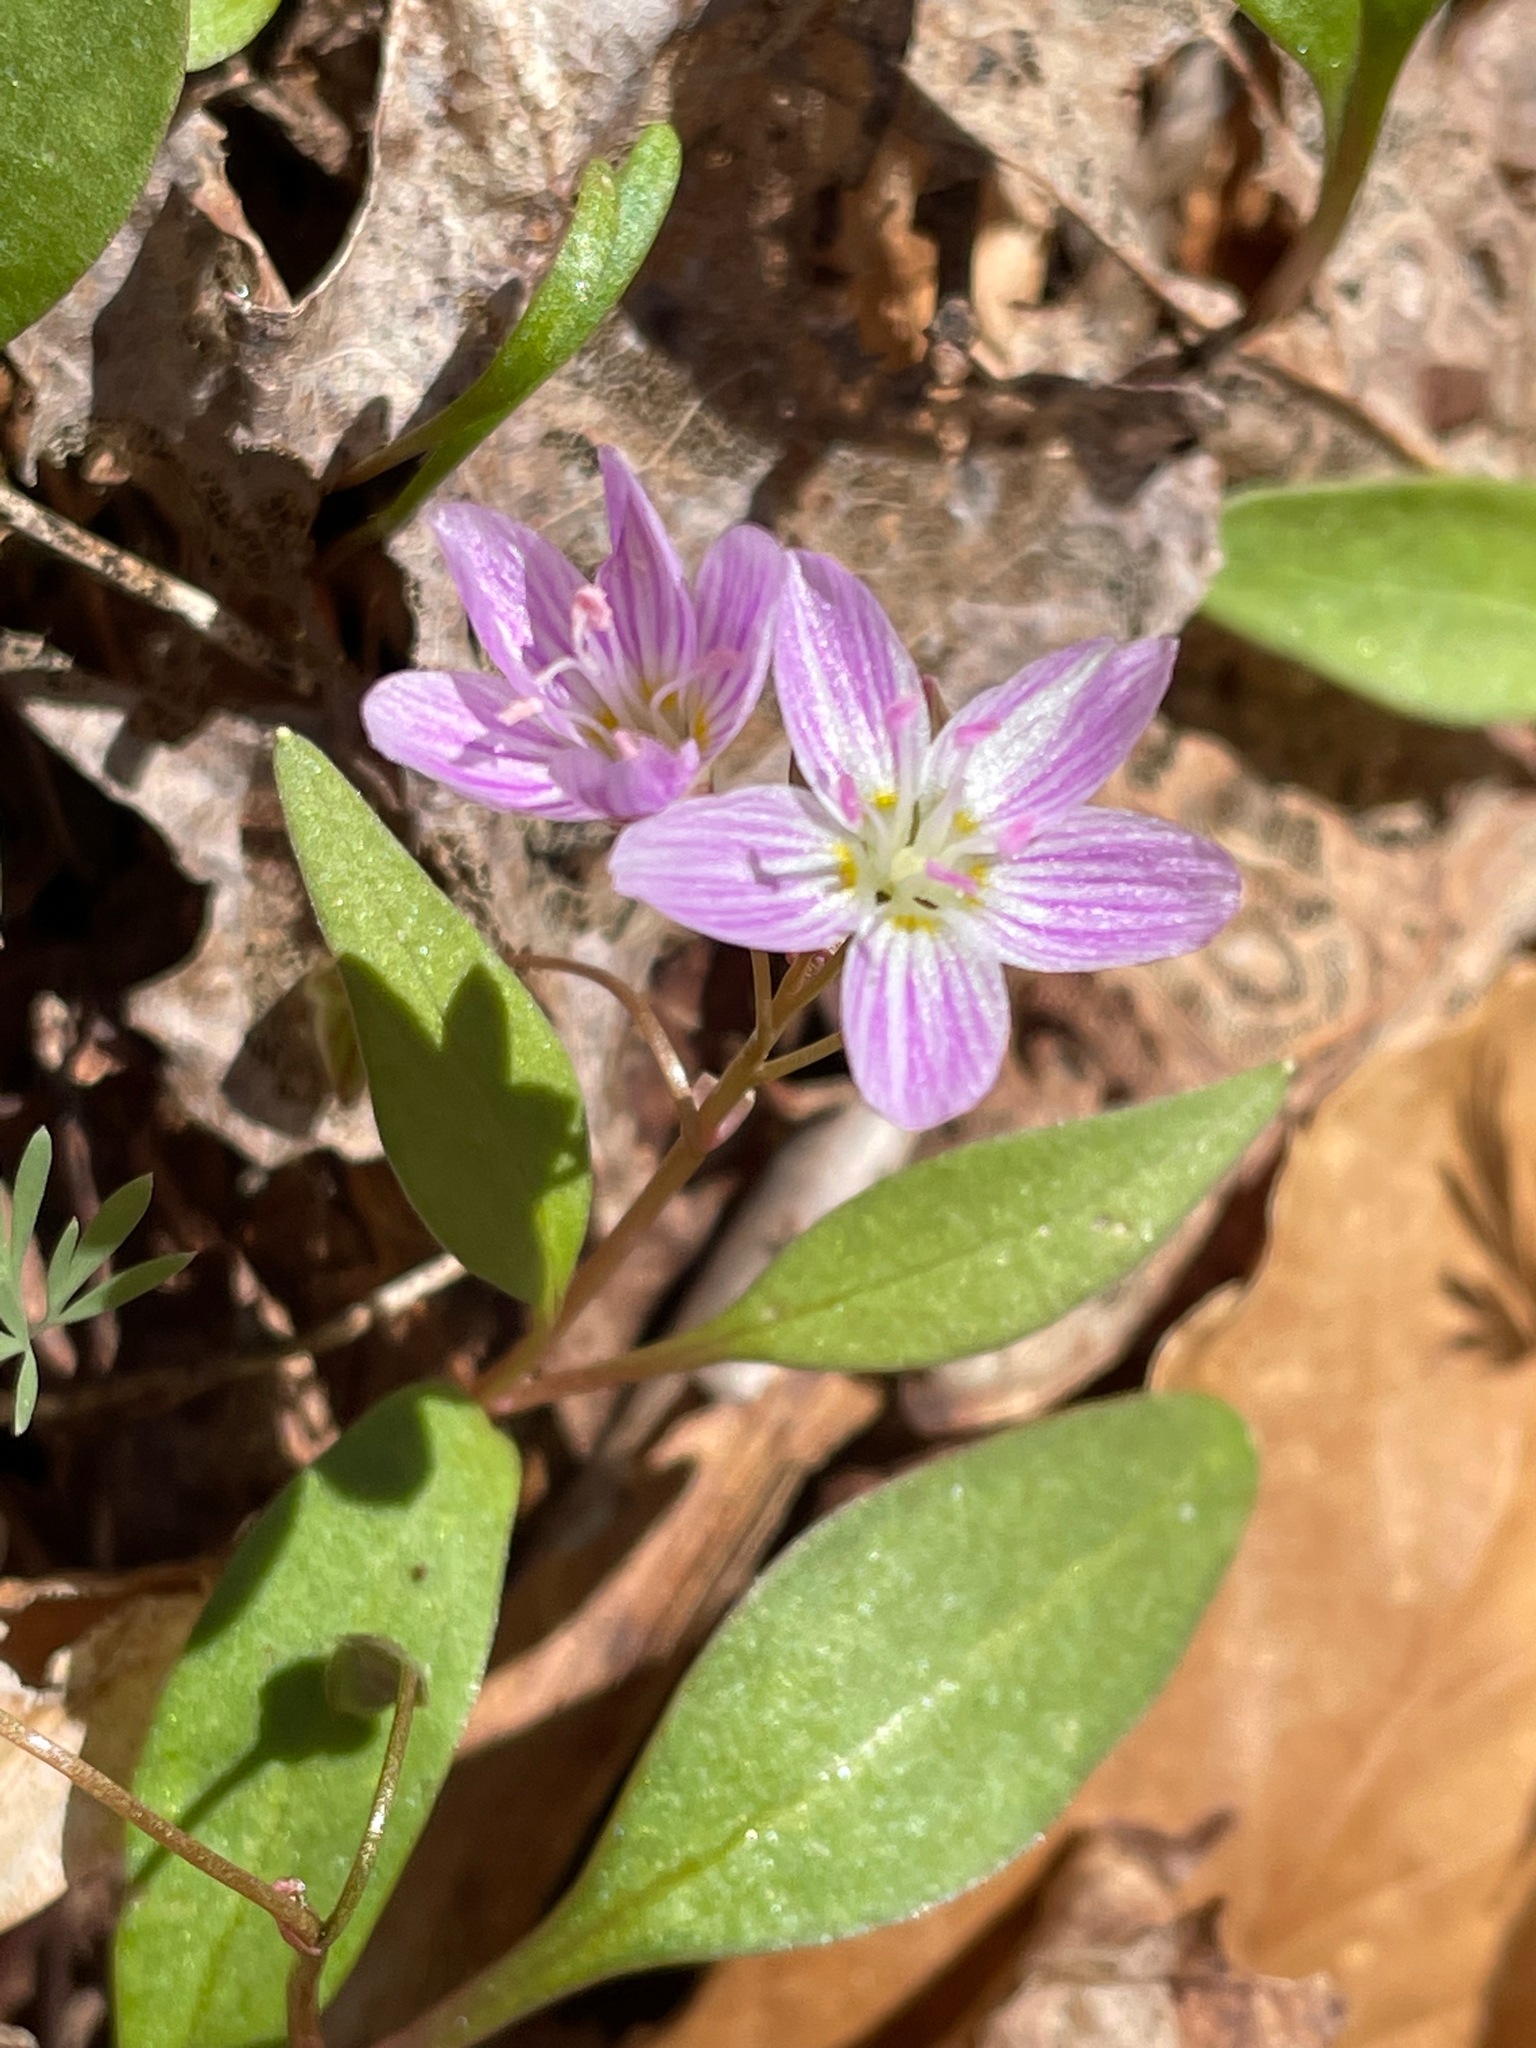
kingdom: Plantae
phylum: Tracheophyta
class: Magnoliopsida
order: Caryophyllales
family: Montiaceae
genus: Claytonia
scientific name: Claytonia caroliniana
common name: Carolina spring beauty
